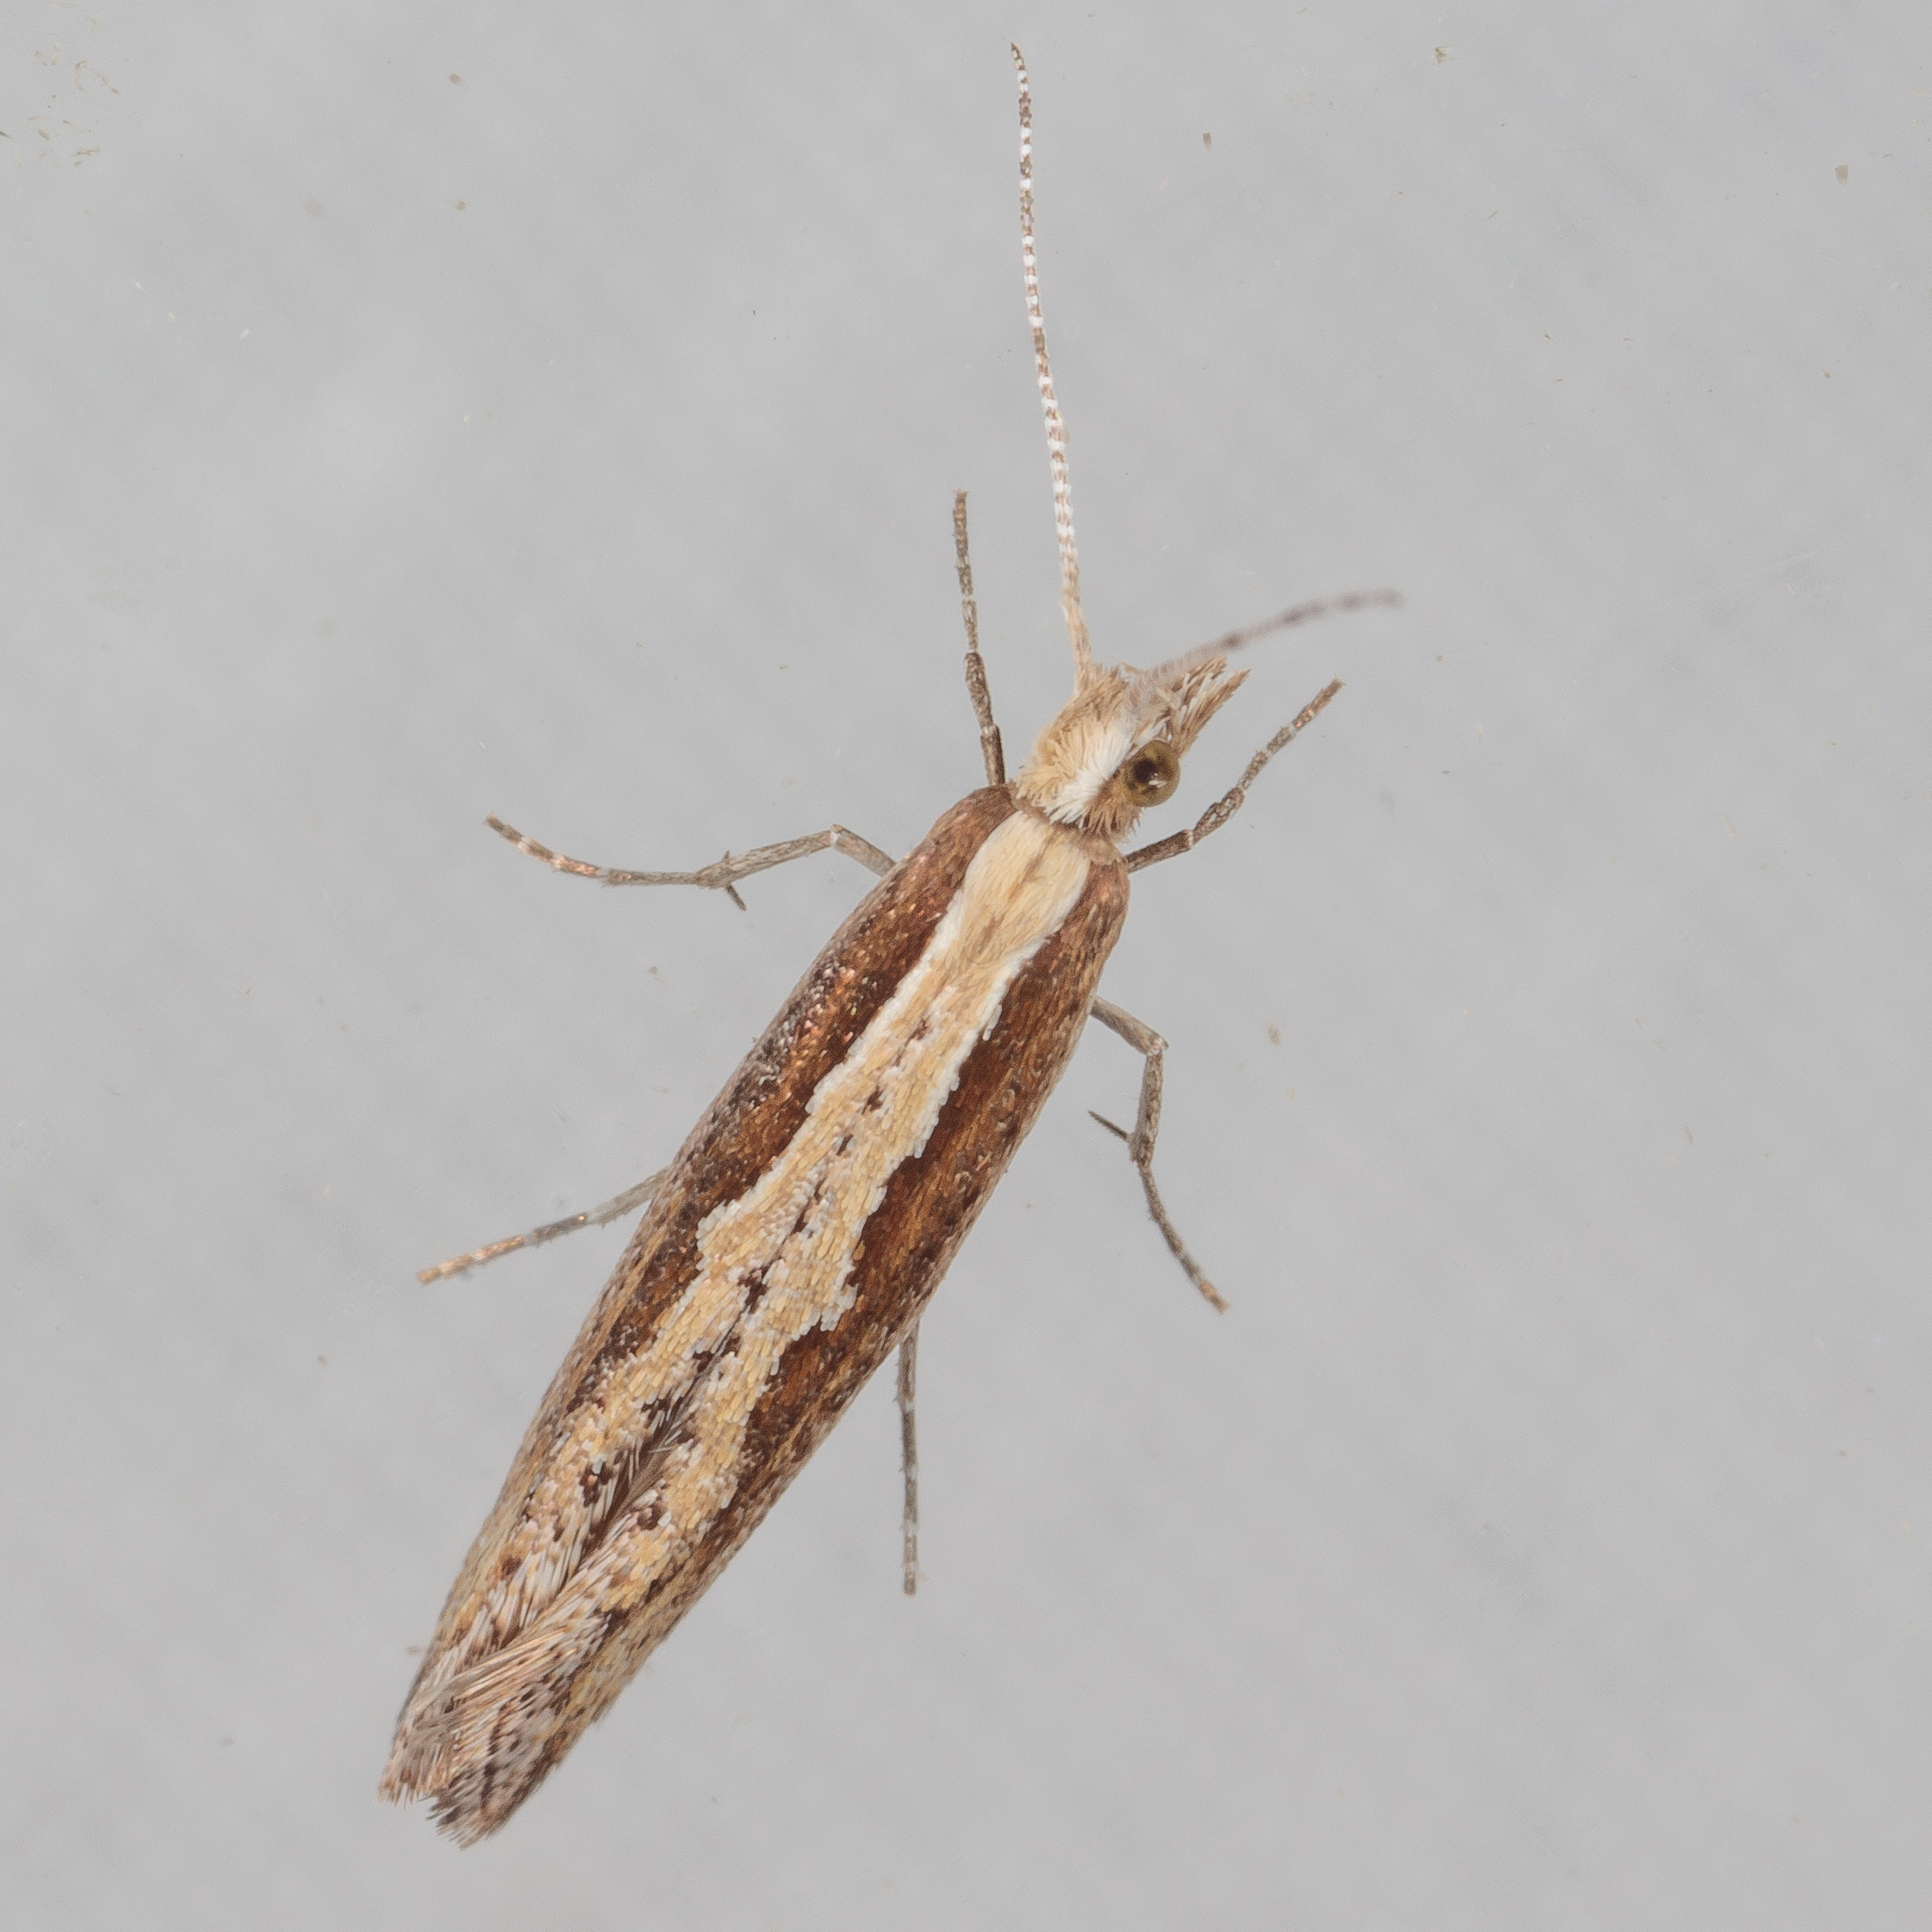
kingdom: Animalia
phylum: Arthropoda
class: Insecta
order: Lepidoptera
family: Plutellidae
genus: Plutella
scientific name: Plutella xylostella
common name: Diamond-back moth
